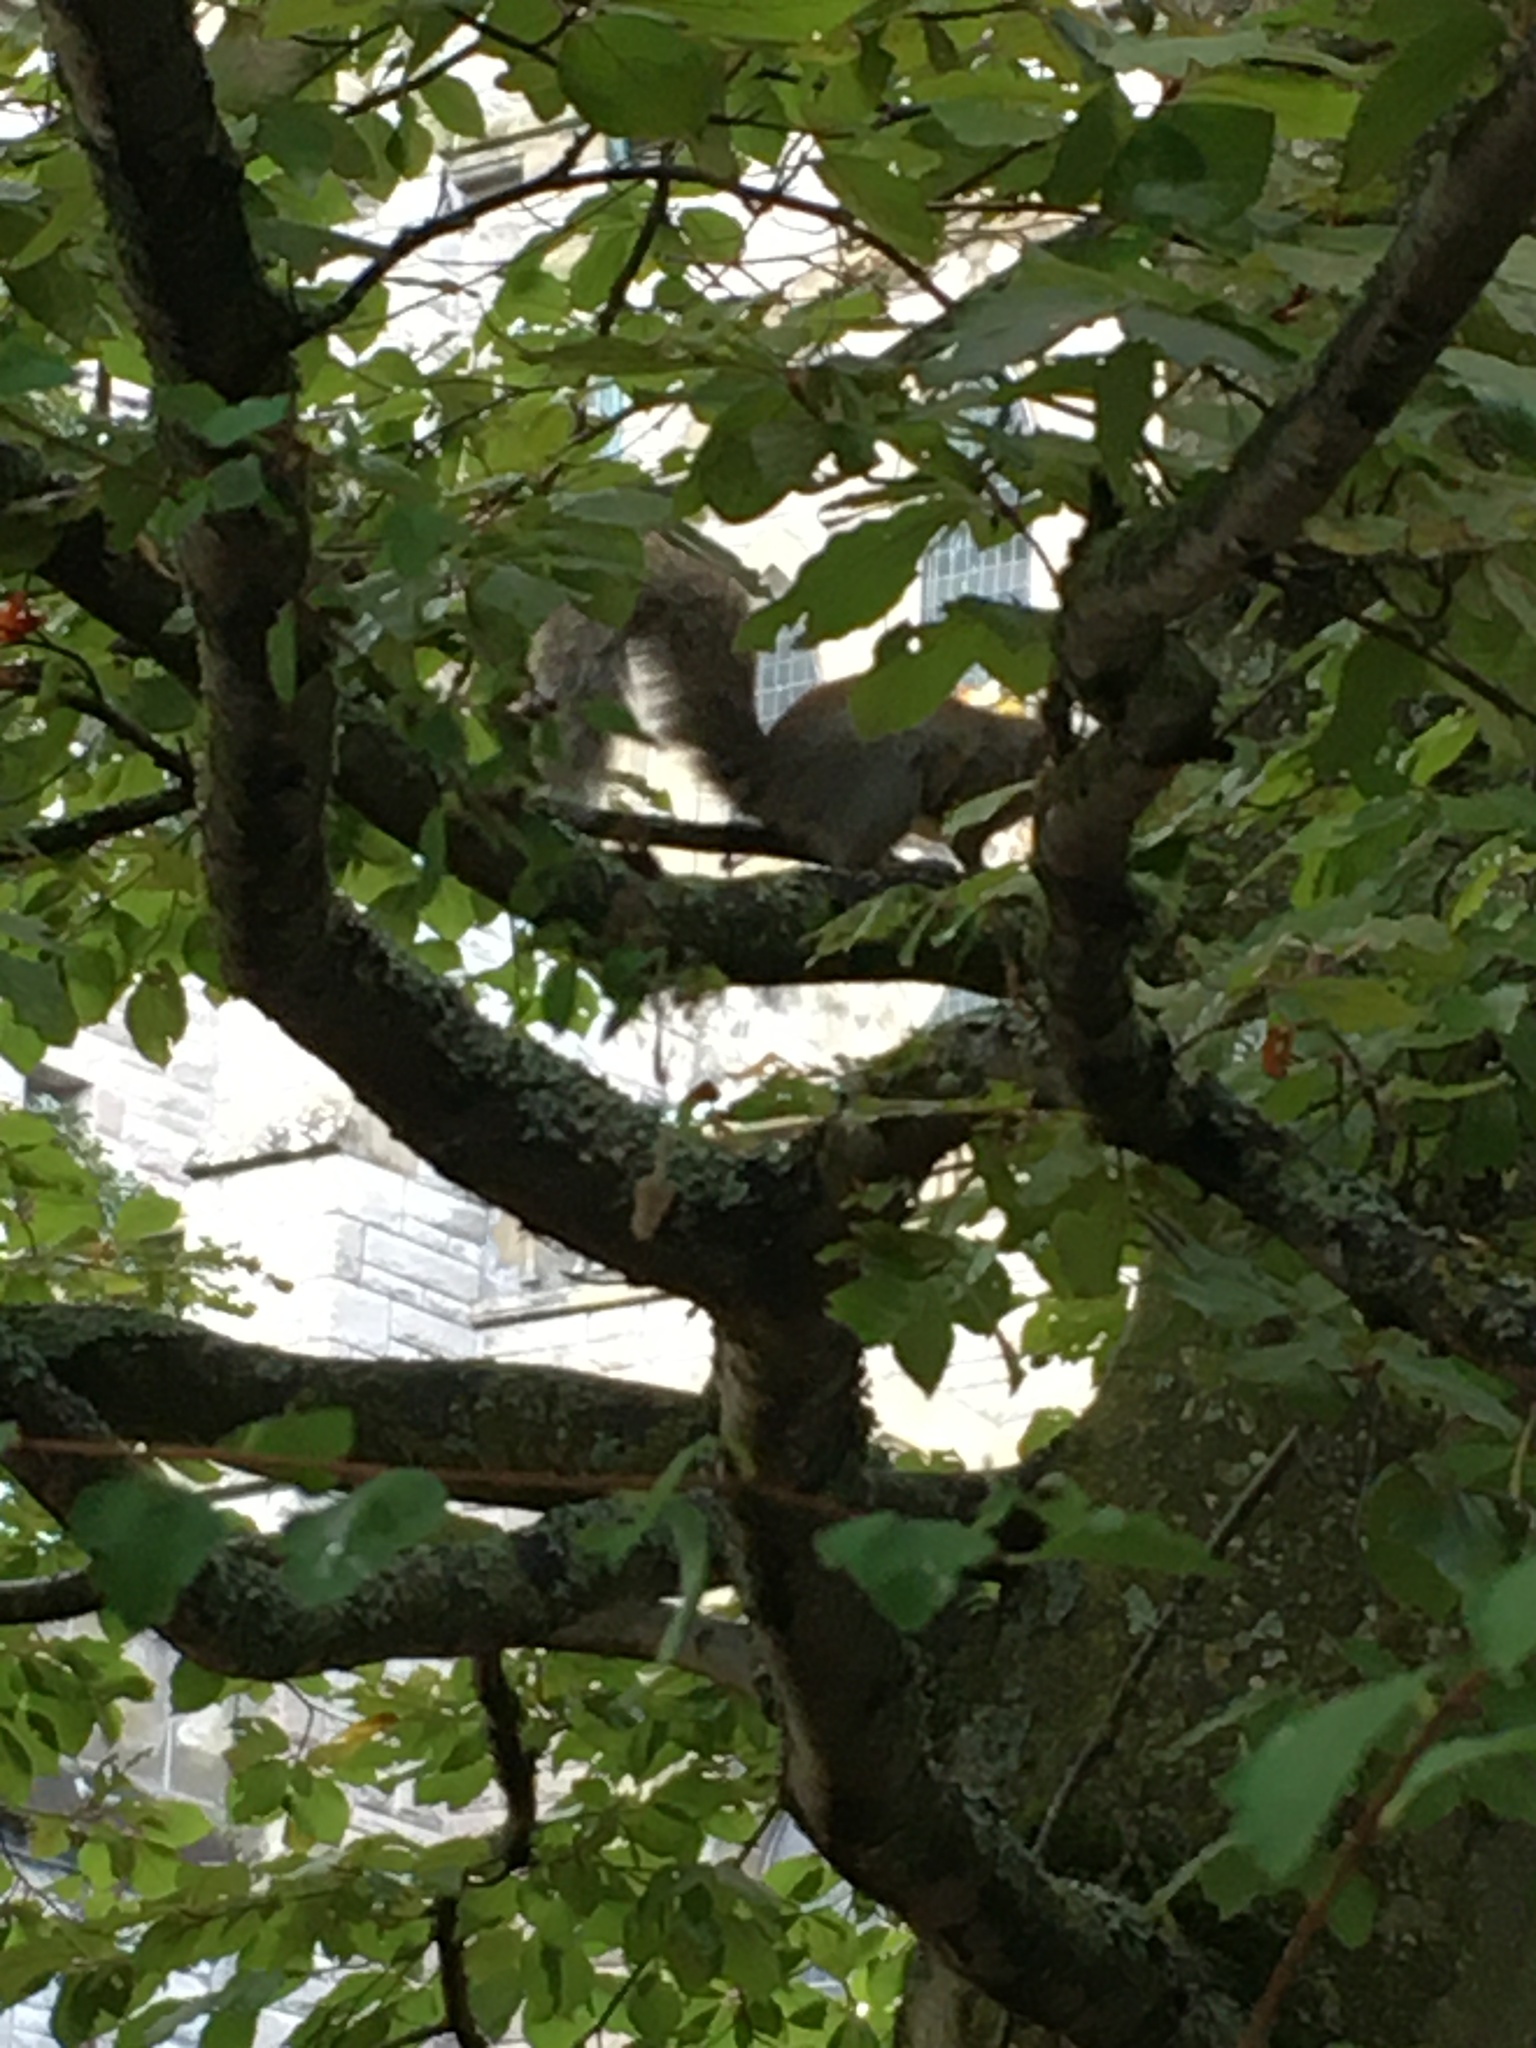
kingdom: Animalia
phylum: Chordata
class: Mammalia
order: Rodentia
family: Sciuridae
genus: Sciurus
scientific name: Sciurus carolinensis
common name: Eastern gray squirrel
